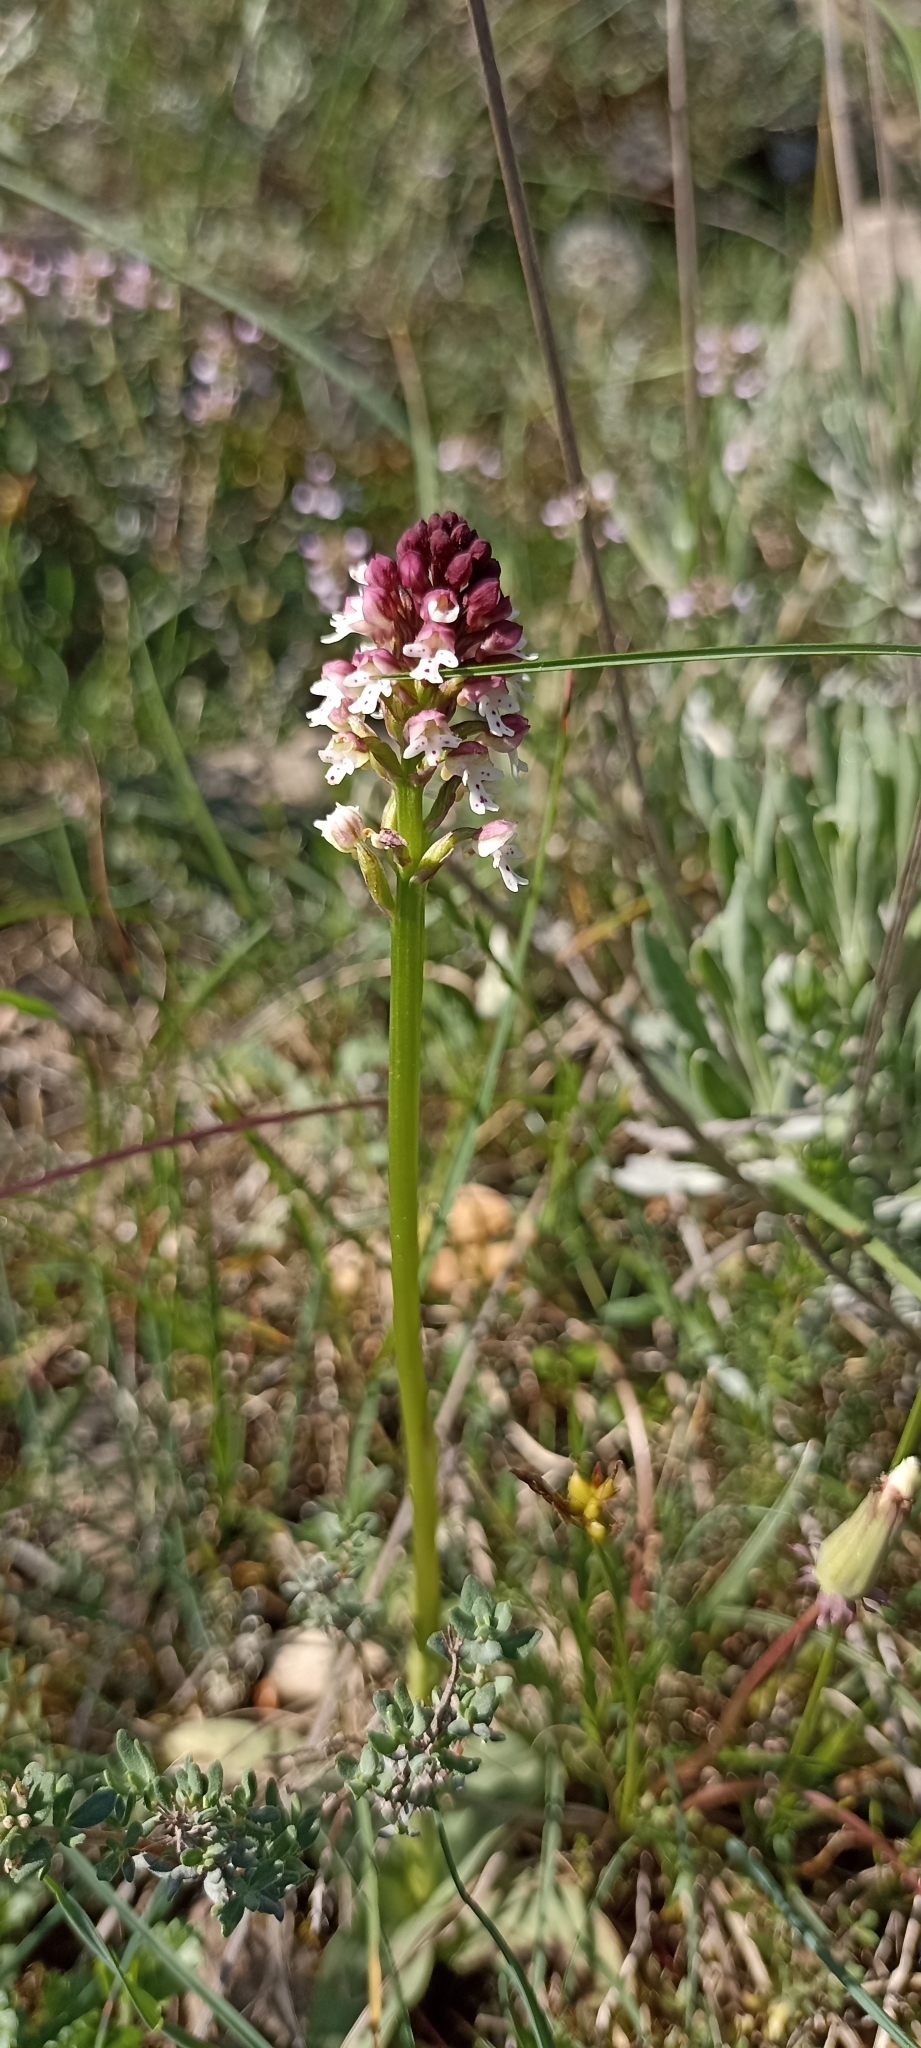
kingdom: Plantae
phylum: Tracheophyta
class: Liliopsida
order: Asparagales
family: Orchidaceae
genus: Neotinea
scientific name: Neotinea ustulata
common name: Burnt orchid
